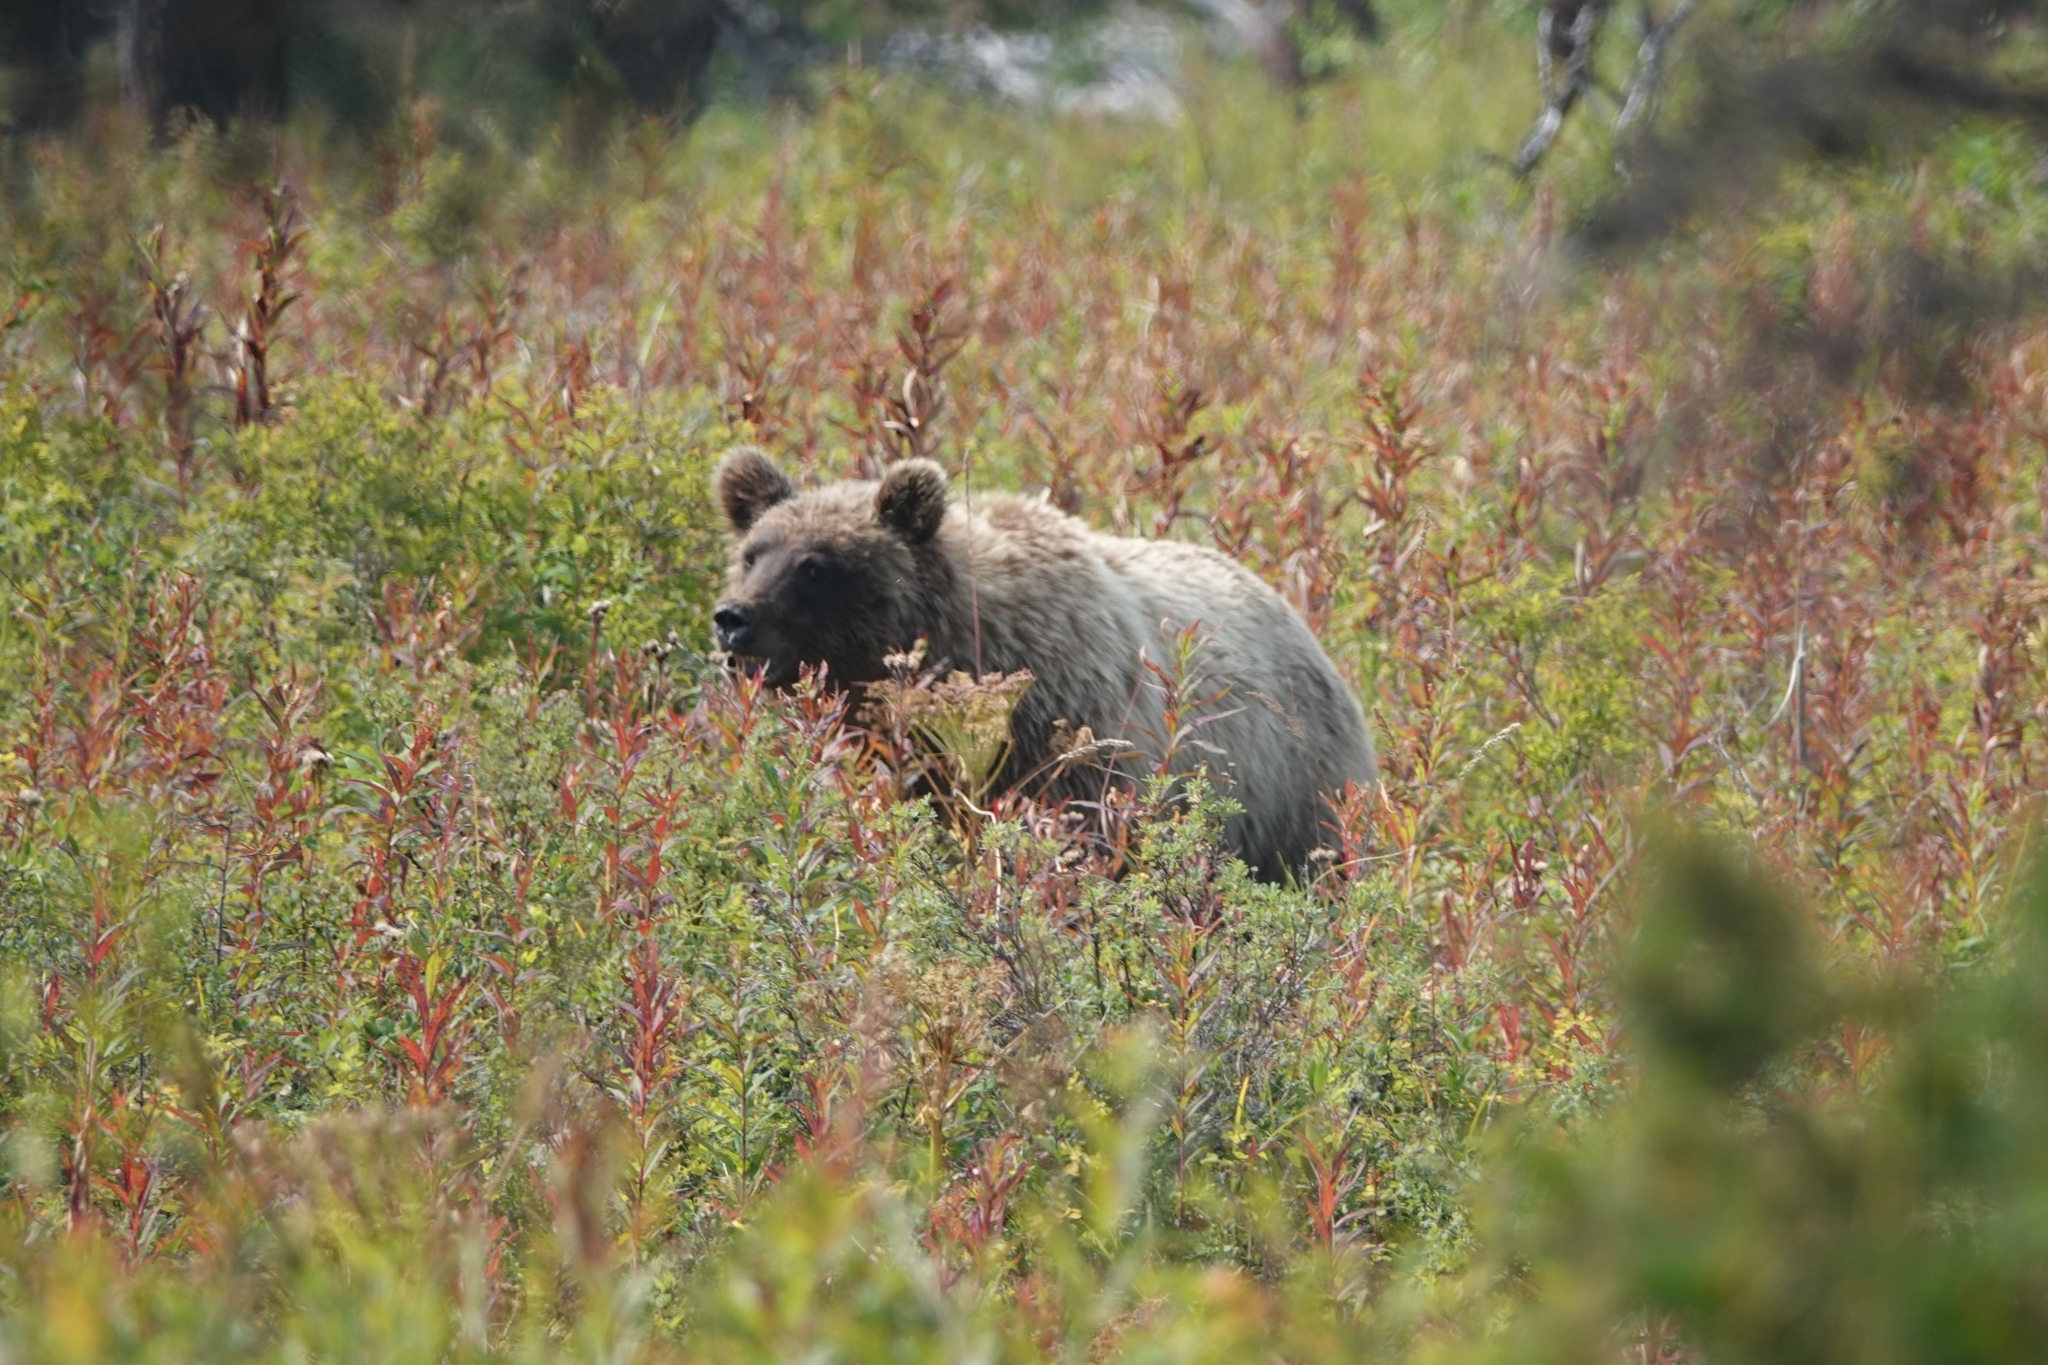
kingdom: Animalia
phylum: Chordata
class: Mammalia
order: Carnivora
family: Ursidae
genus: Ursus
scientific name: Ursus arctos
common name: Brown bear
